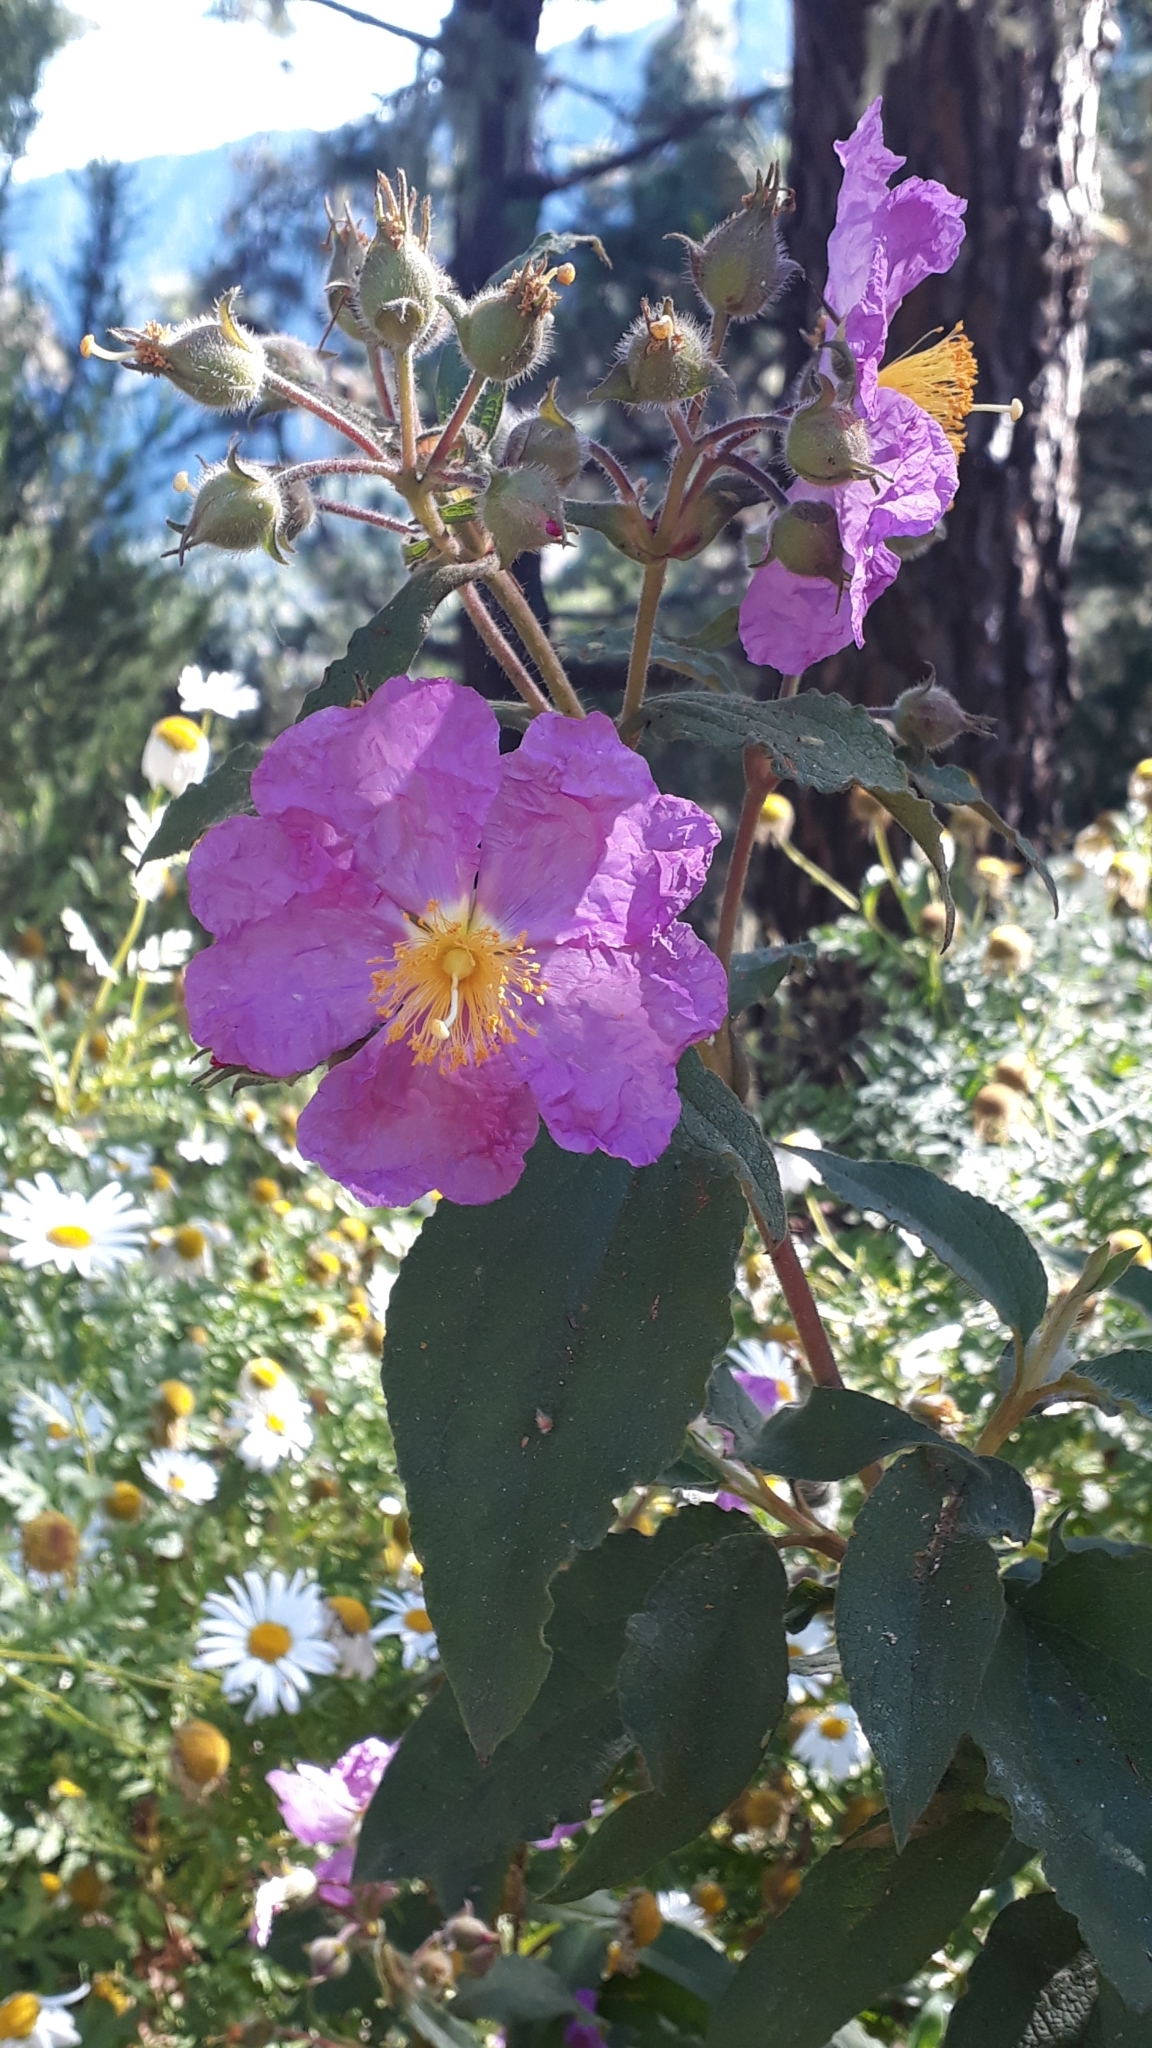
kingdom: Plantae
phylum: Tracheophyta
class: Magnoliopsida
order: Malvales
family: Cistaceae
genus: Cistus
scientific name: Cistus symphytifolius
